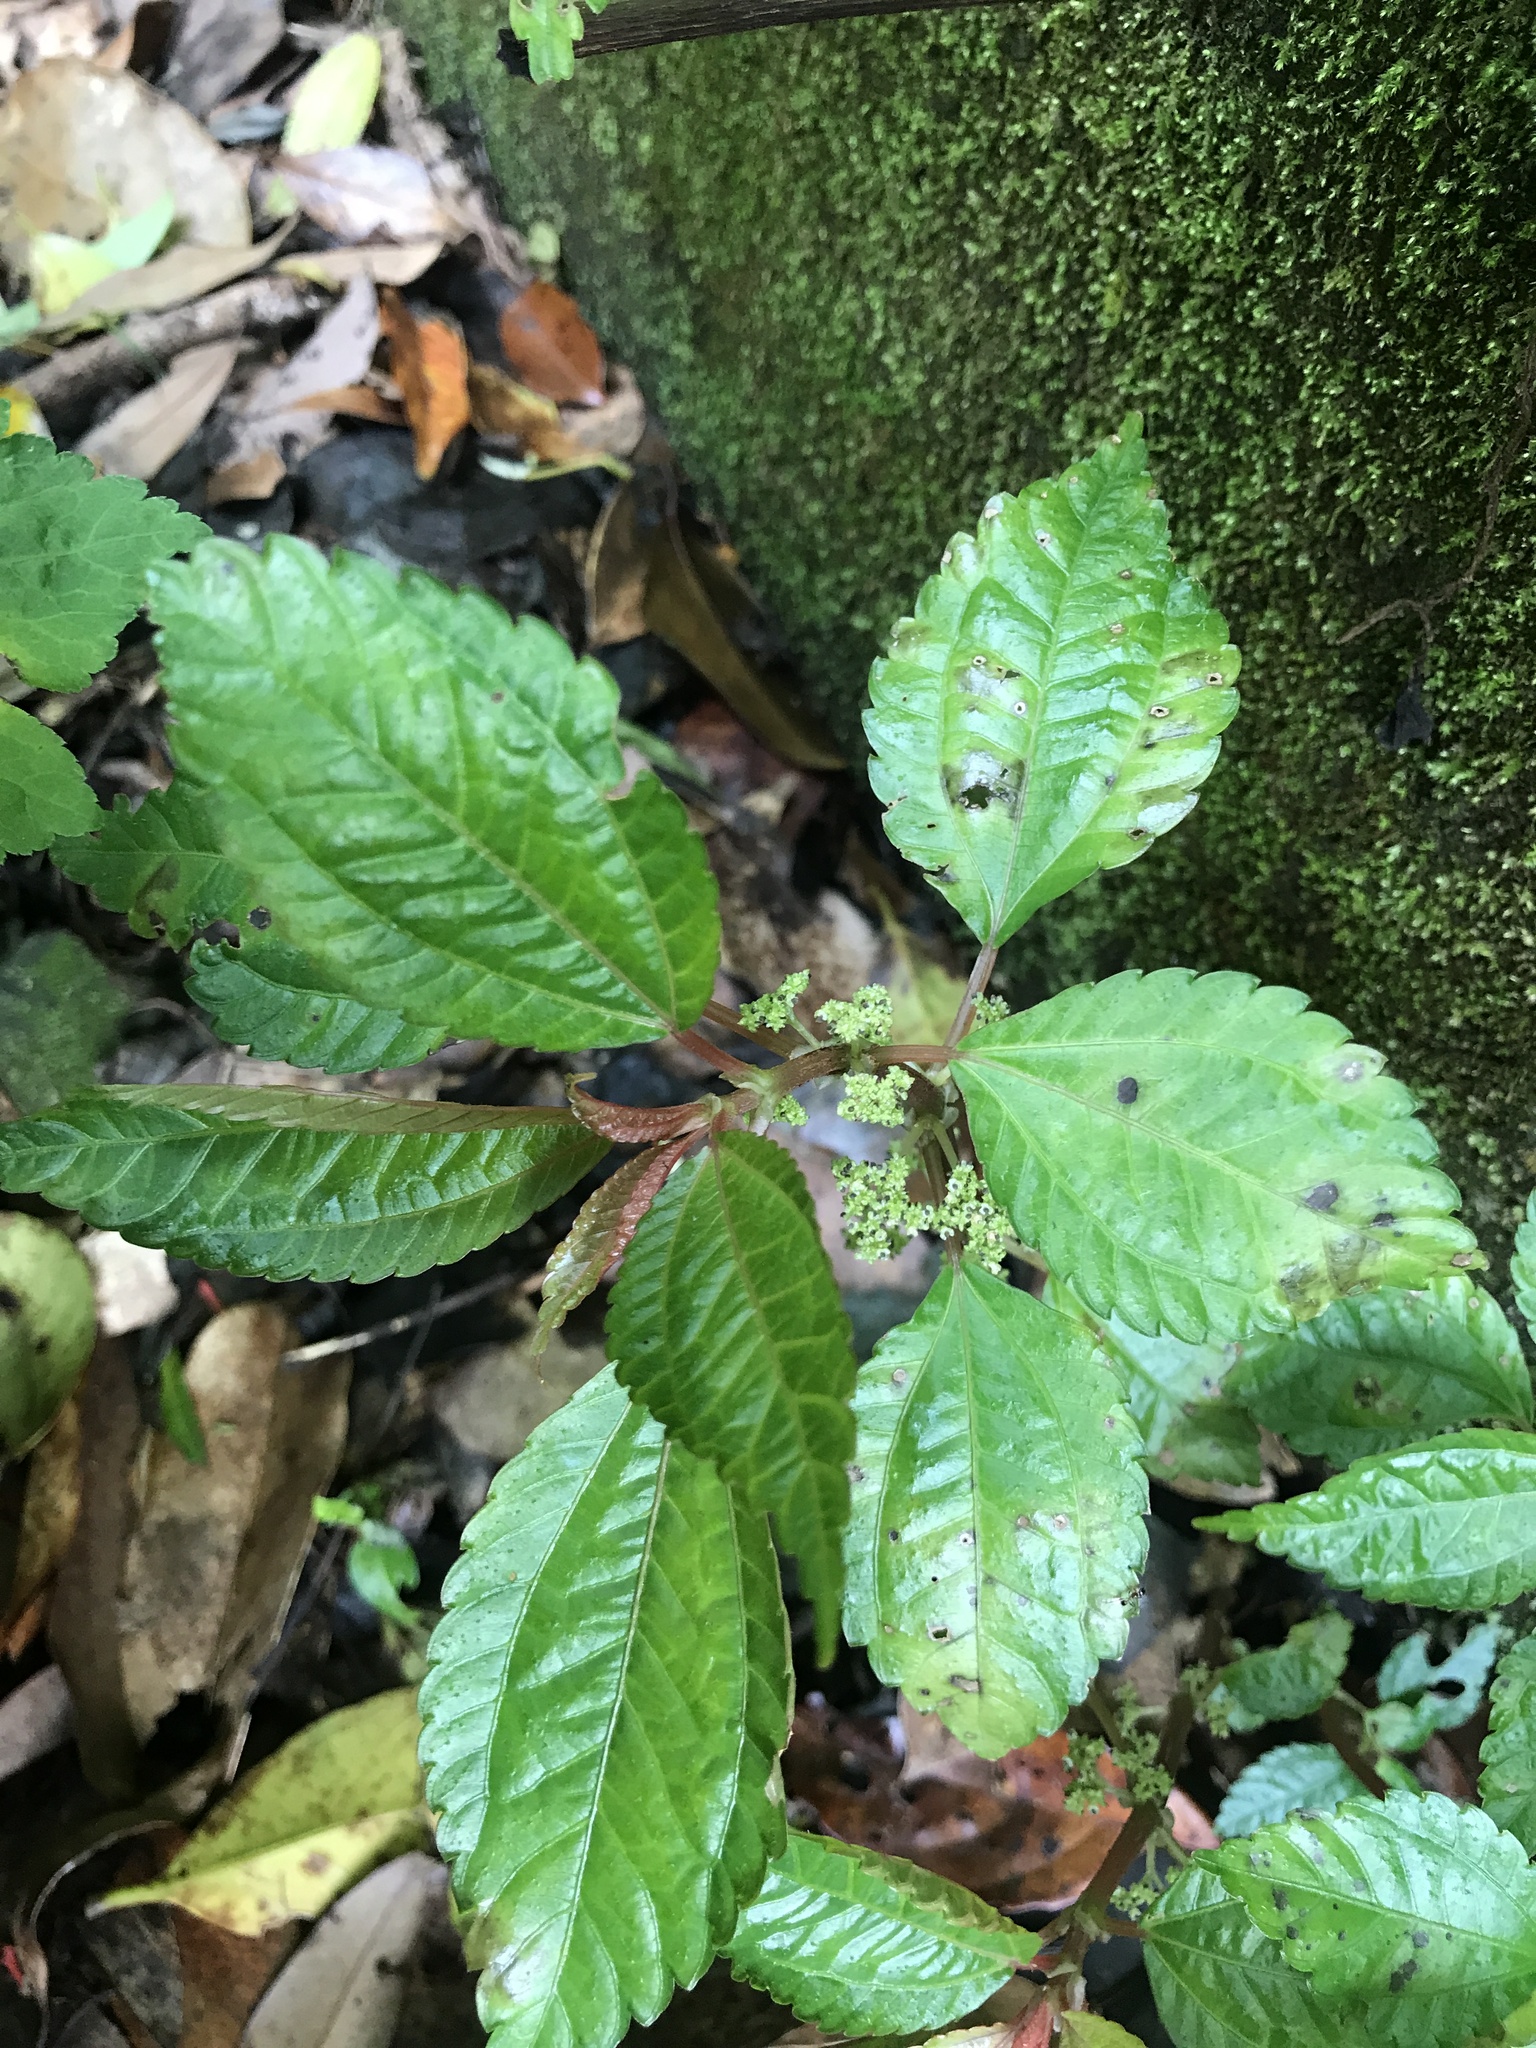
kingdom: Plantae
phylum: Tracheophyta
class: Magnoliopsida
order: Rosales
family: Urticaceae
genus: Pilea
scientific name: Pilea angulata
